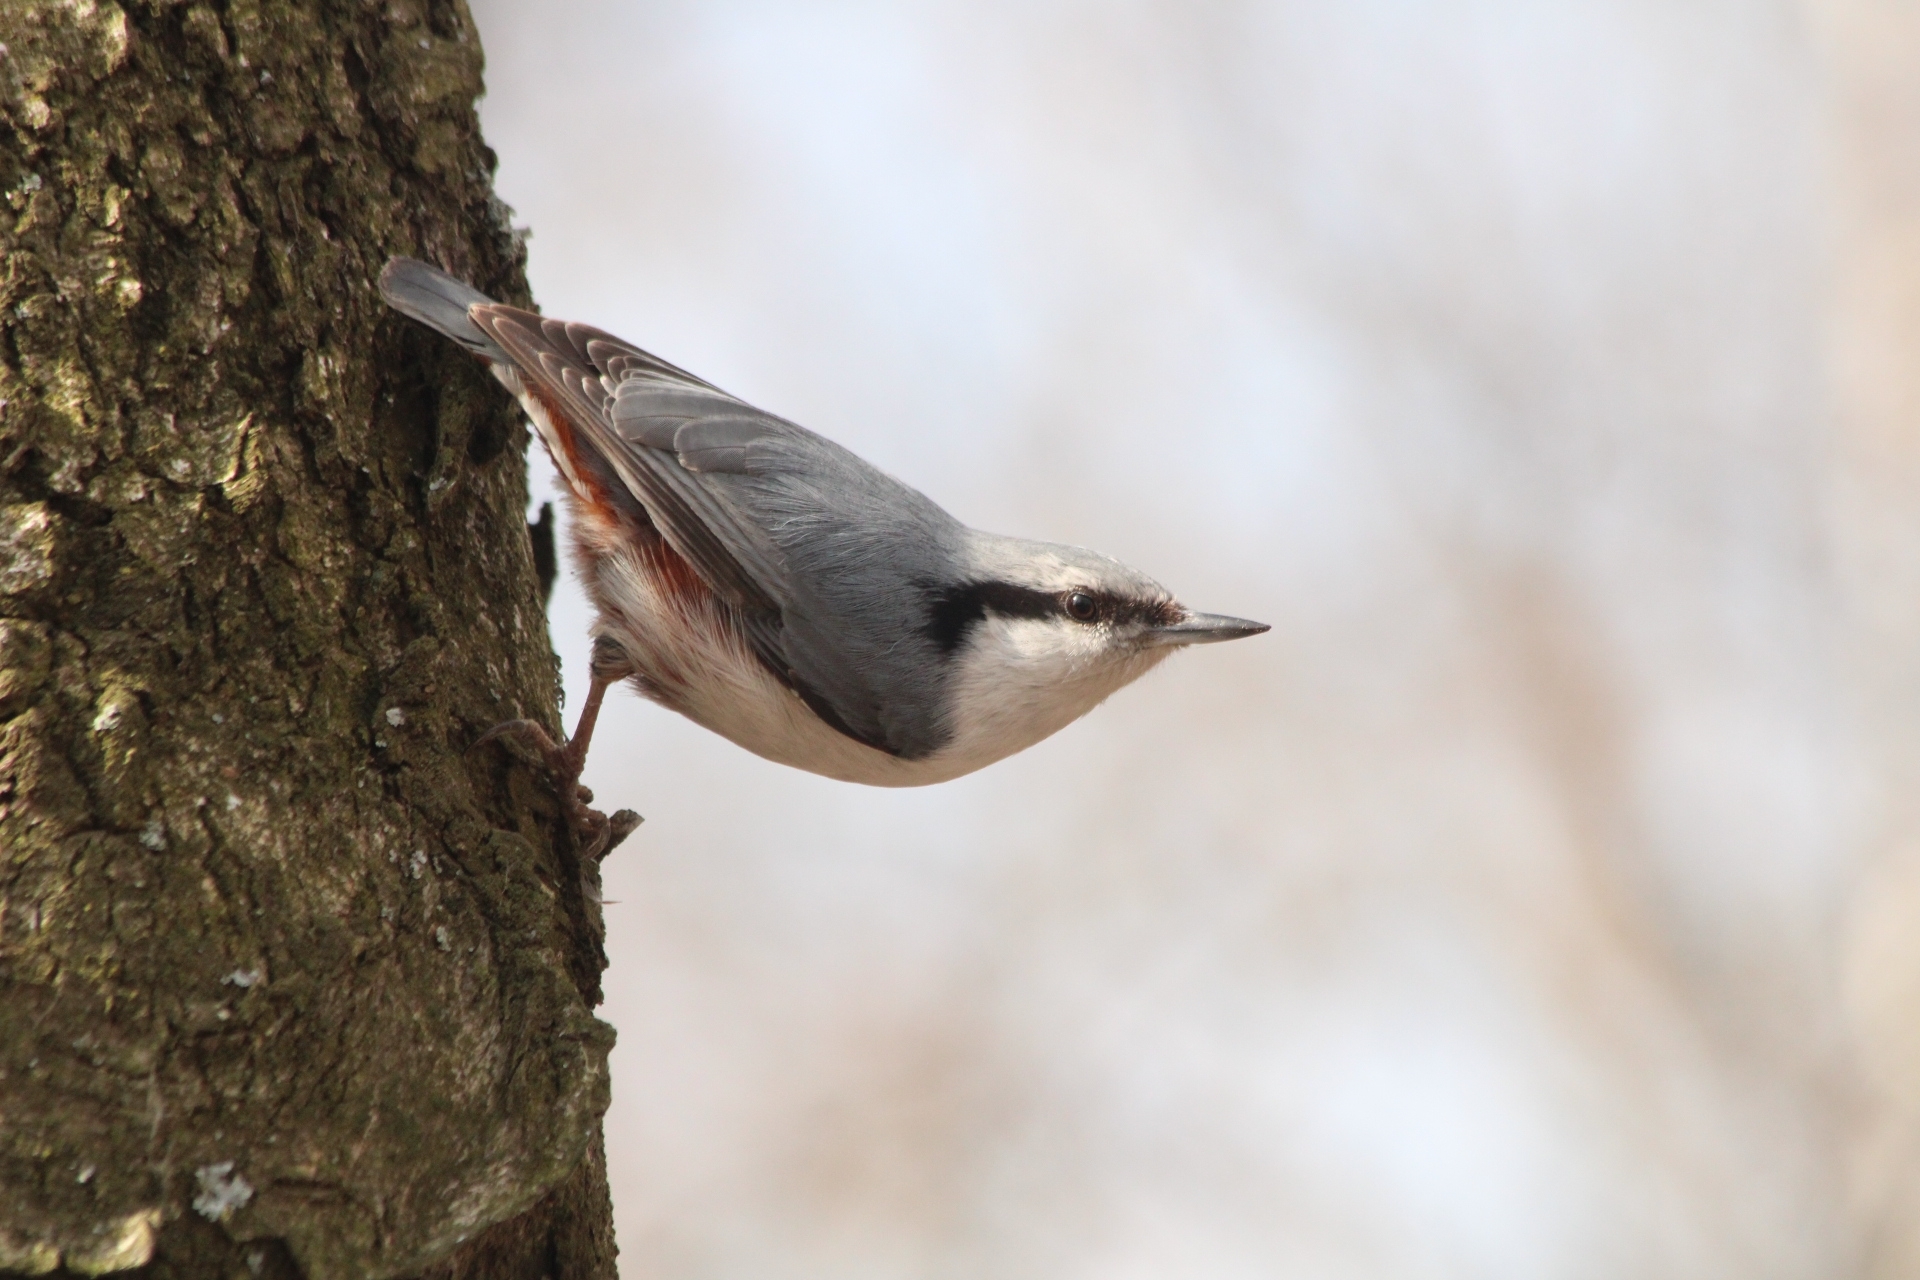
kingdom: Animalia
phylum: Chordata
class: Aves
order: Passeriformes
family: Sittidae
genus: Sitta
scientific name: Sitta europaea
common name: Eurasian nuthatch
